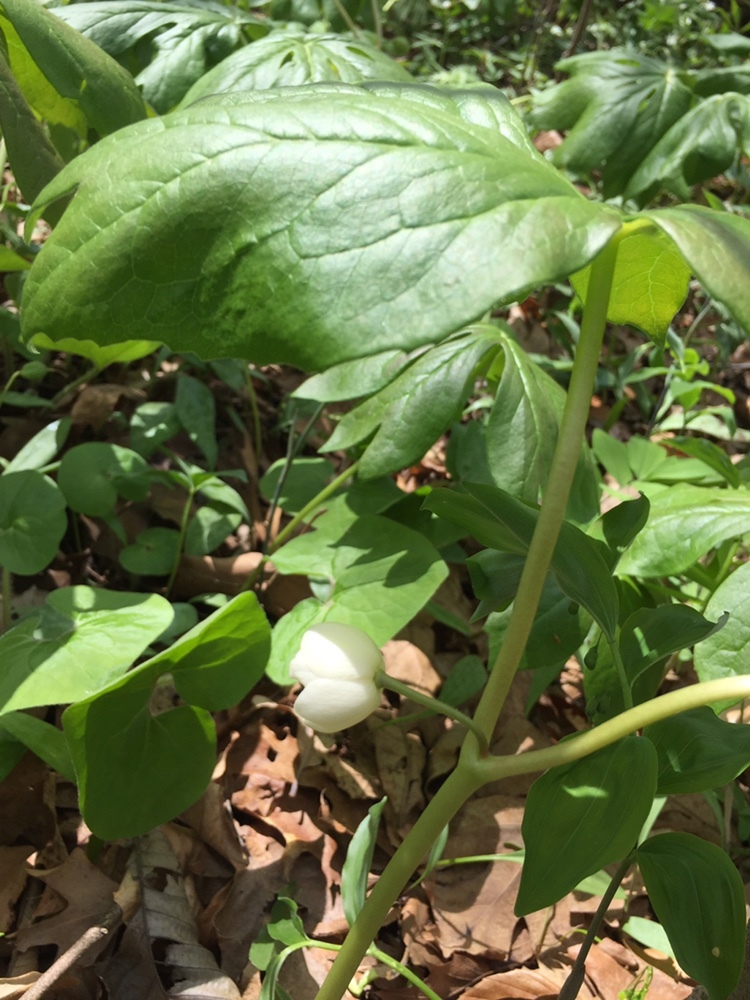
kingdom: Plantae
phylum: Tracheophyta
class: Magnoliopsida
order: Ranunculales
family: Berberidaceae
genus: Podophyllum
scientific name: Podophyllum peltatum
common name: Wild mandrake
